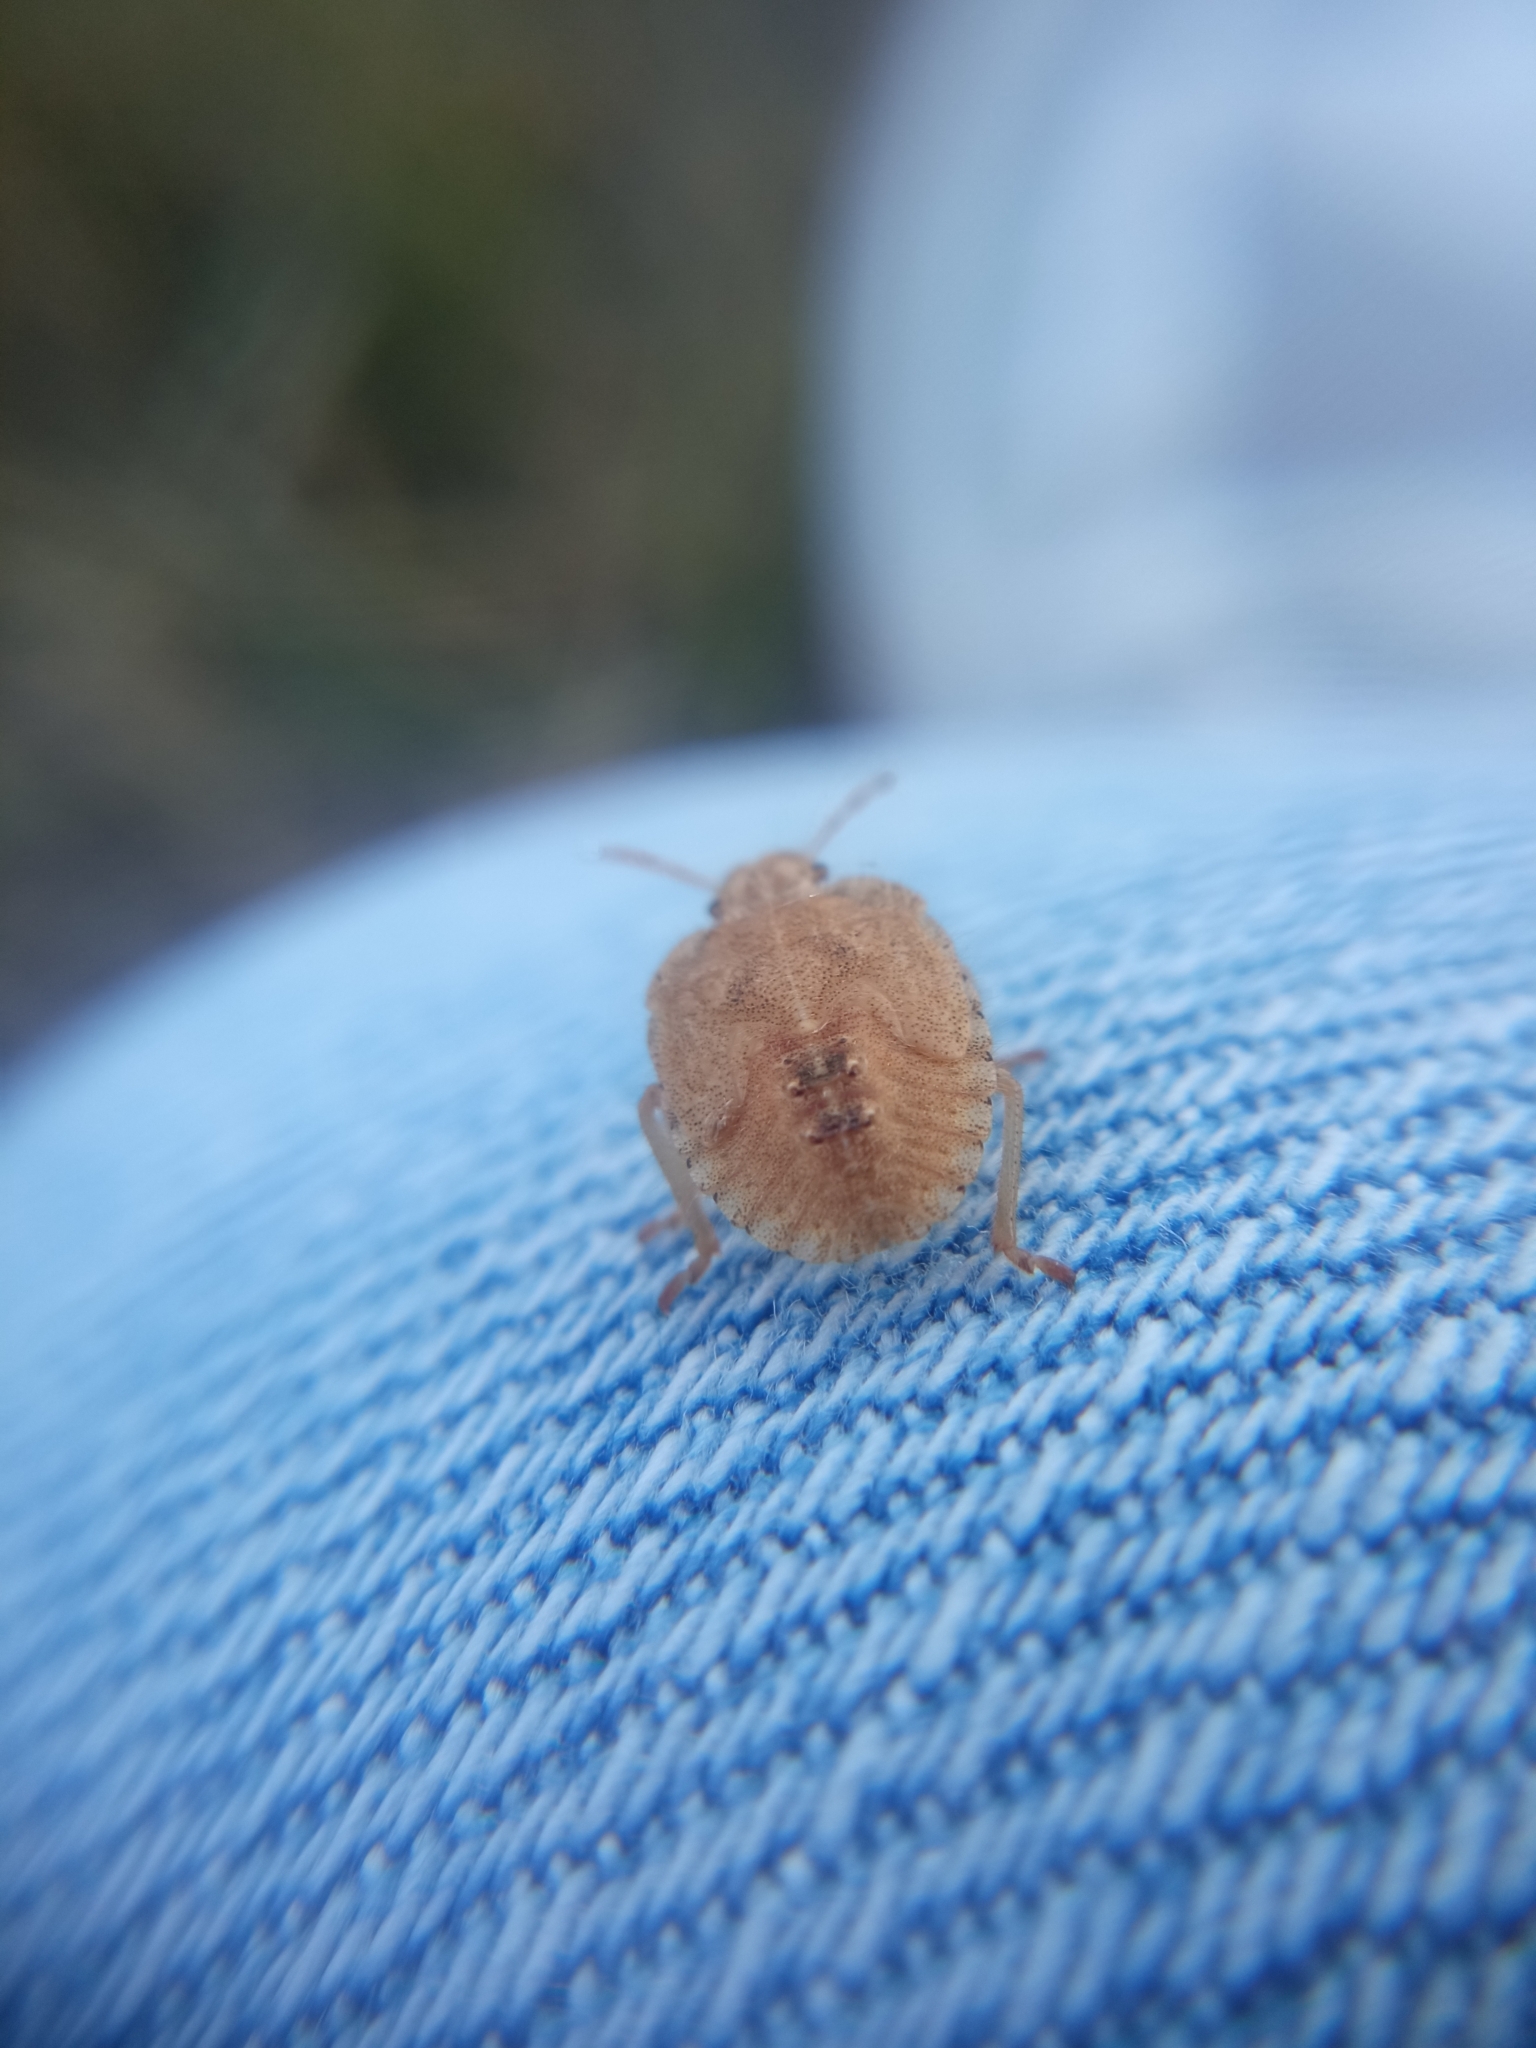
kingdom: Animalia
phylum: Arthropoda
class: Insecta
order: Hemiptera
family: Pentatomidae
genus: Dolycoris
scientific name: Dolycoris baccarum
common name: Sloe bug
